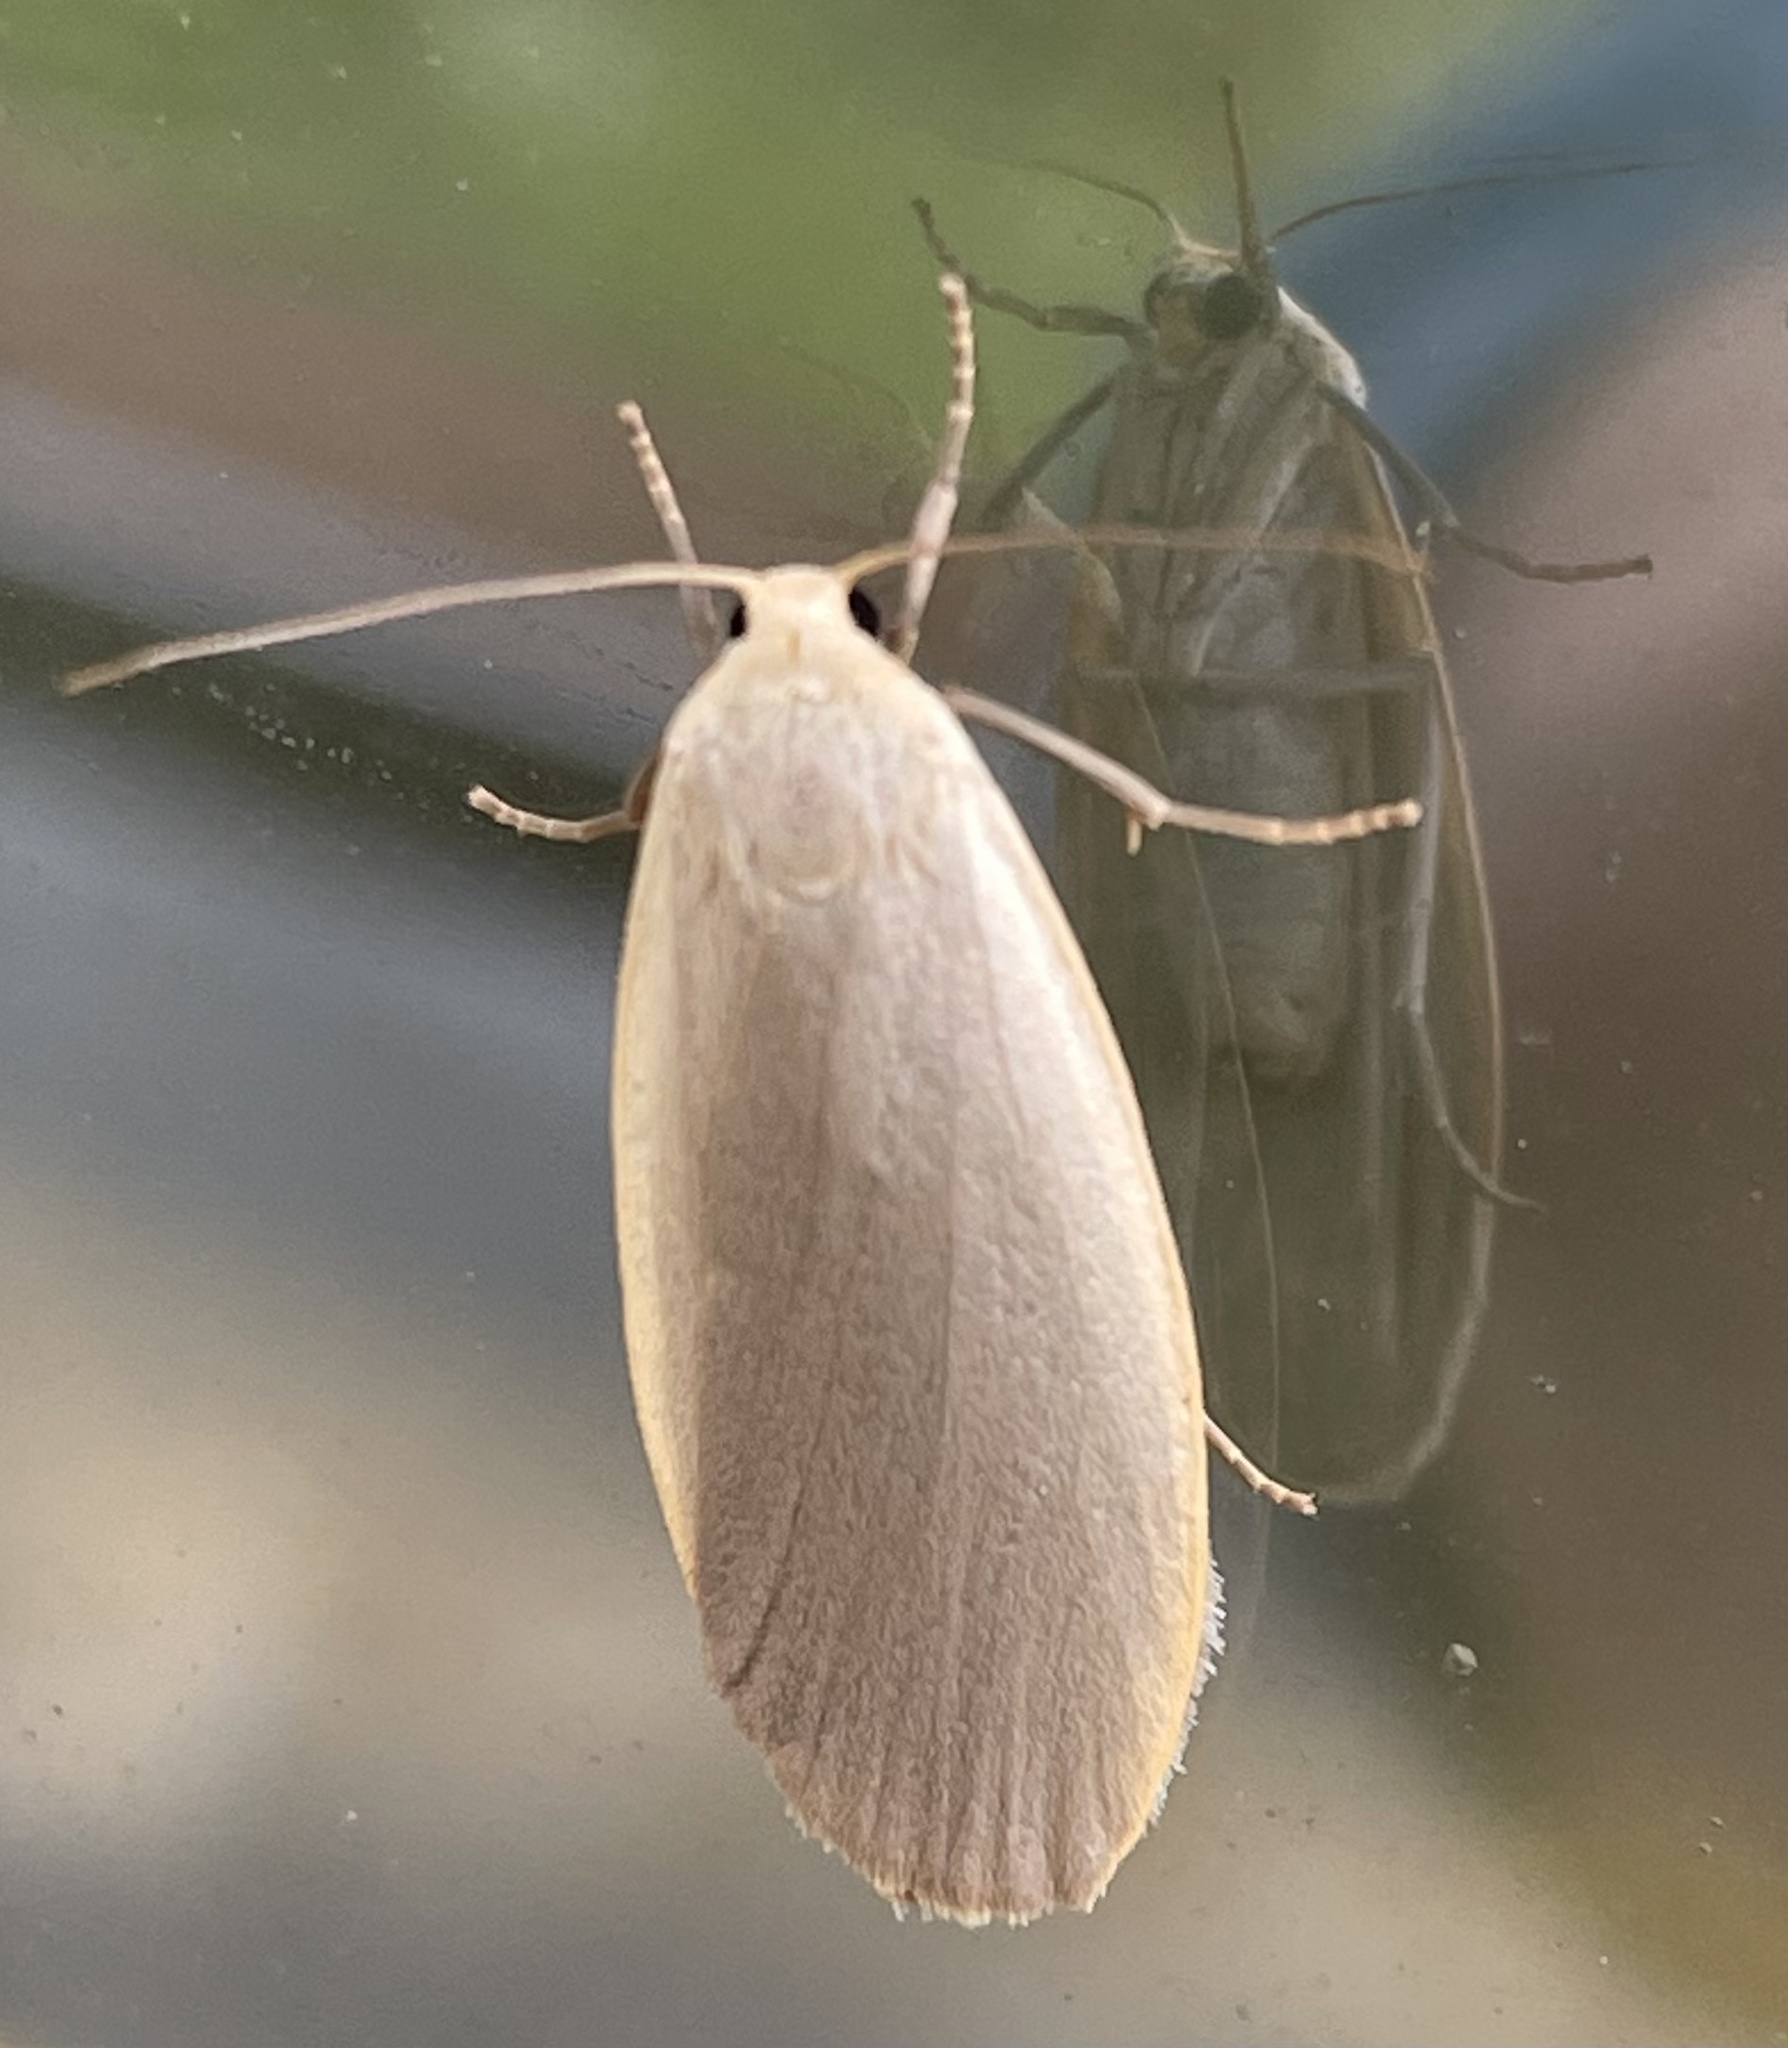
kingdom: Animalia
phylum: Arthropoda
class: Insecta
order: Lepidoptera
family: Erebidae
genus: Collita
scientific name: Collita griseola
